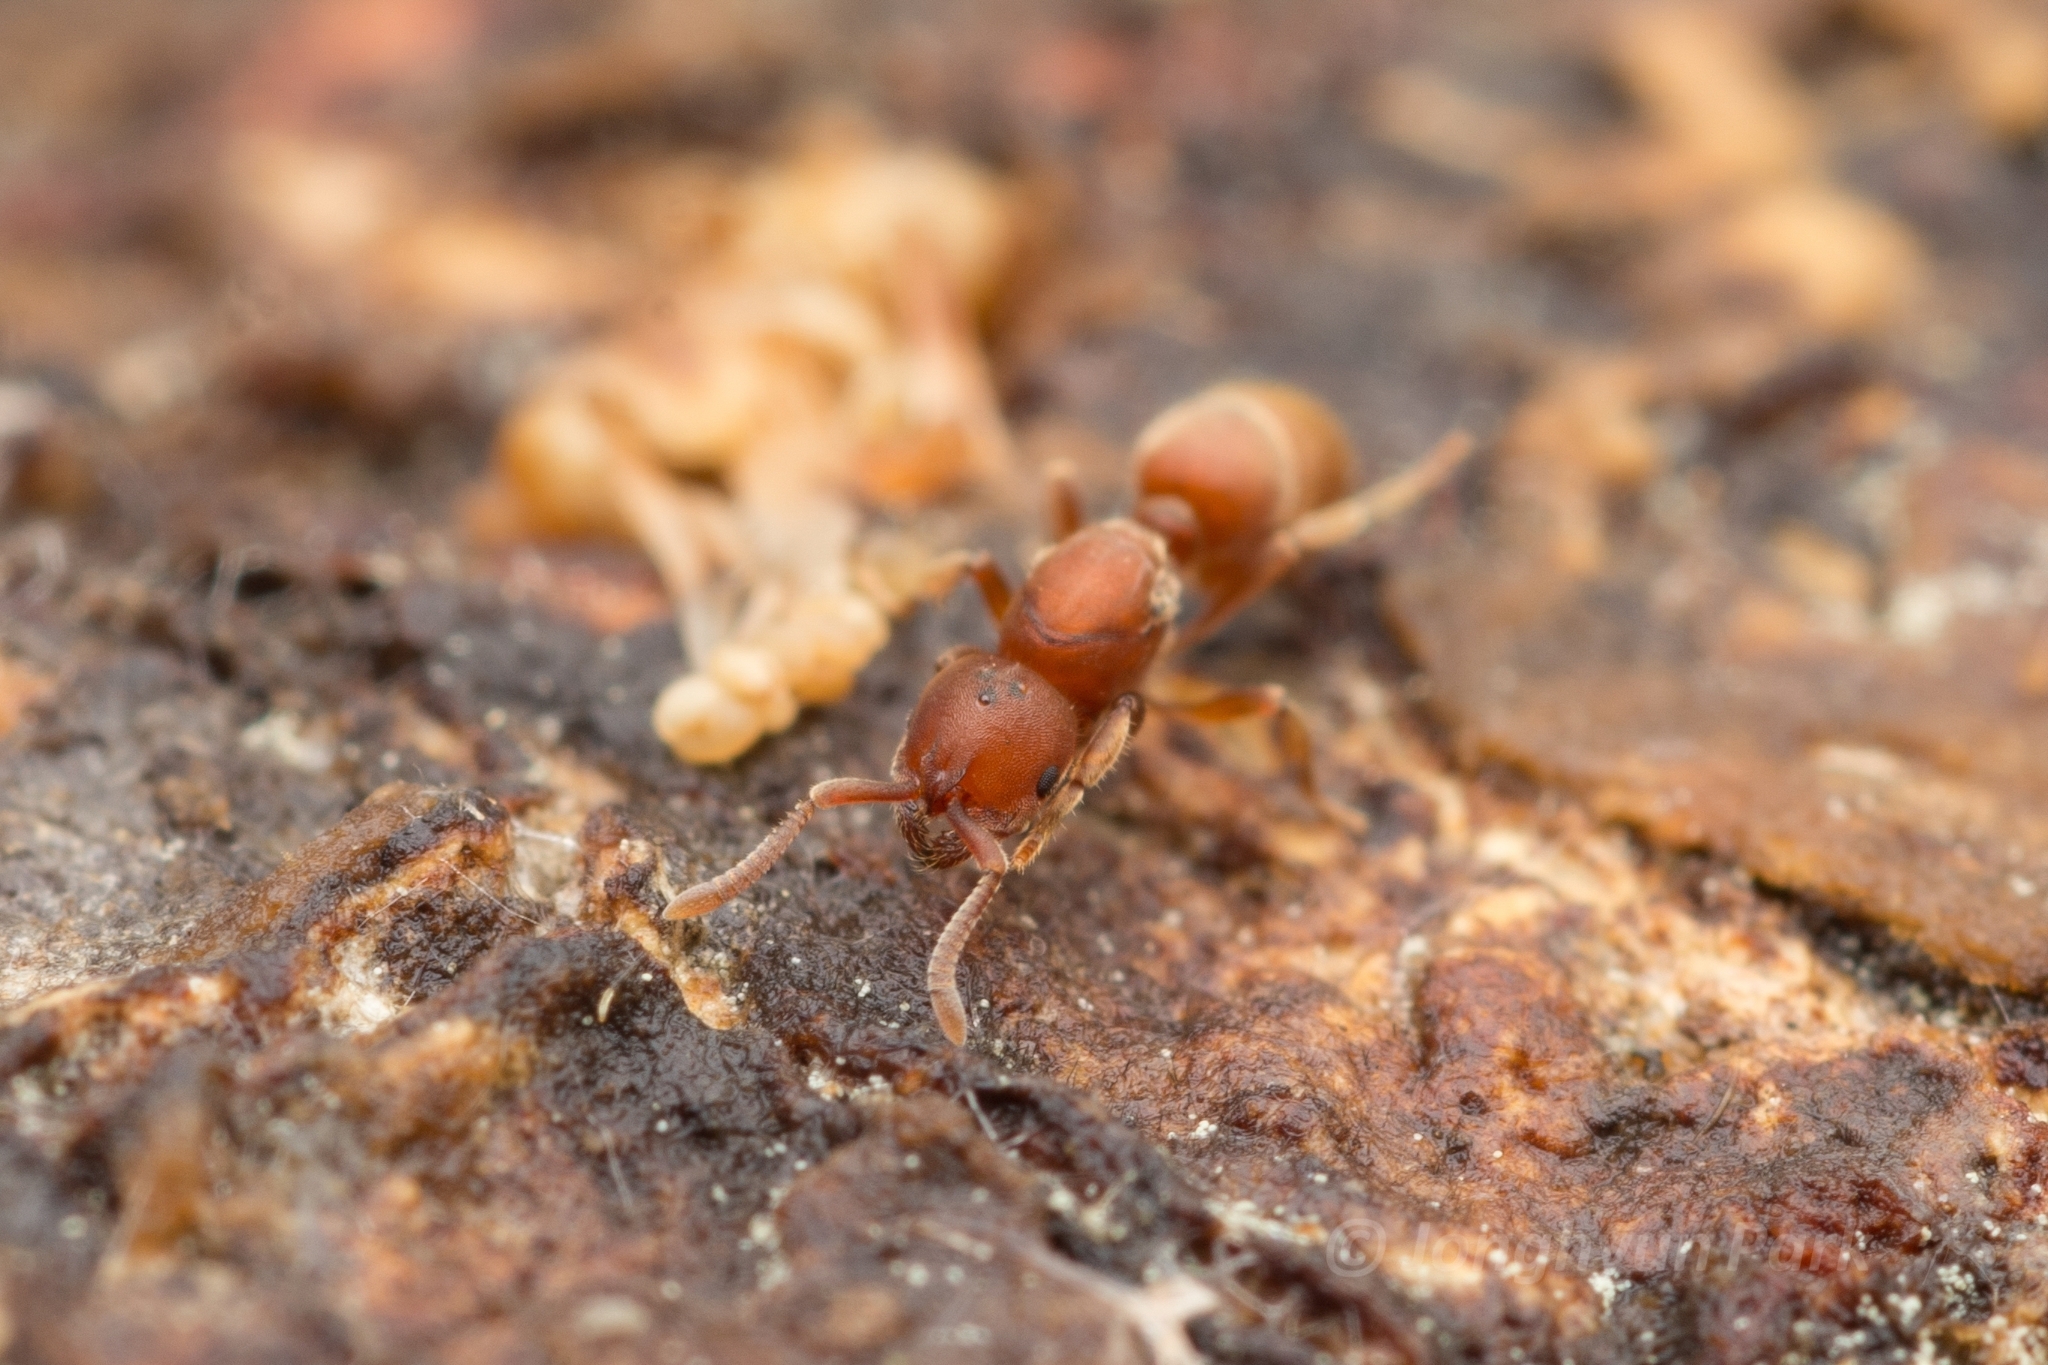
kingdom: Animalia
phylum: Arthropoda
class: Insecta
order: Hymenoptera
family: Formicidae
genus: Proceratium
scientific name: Proceratium itoi
